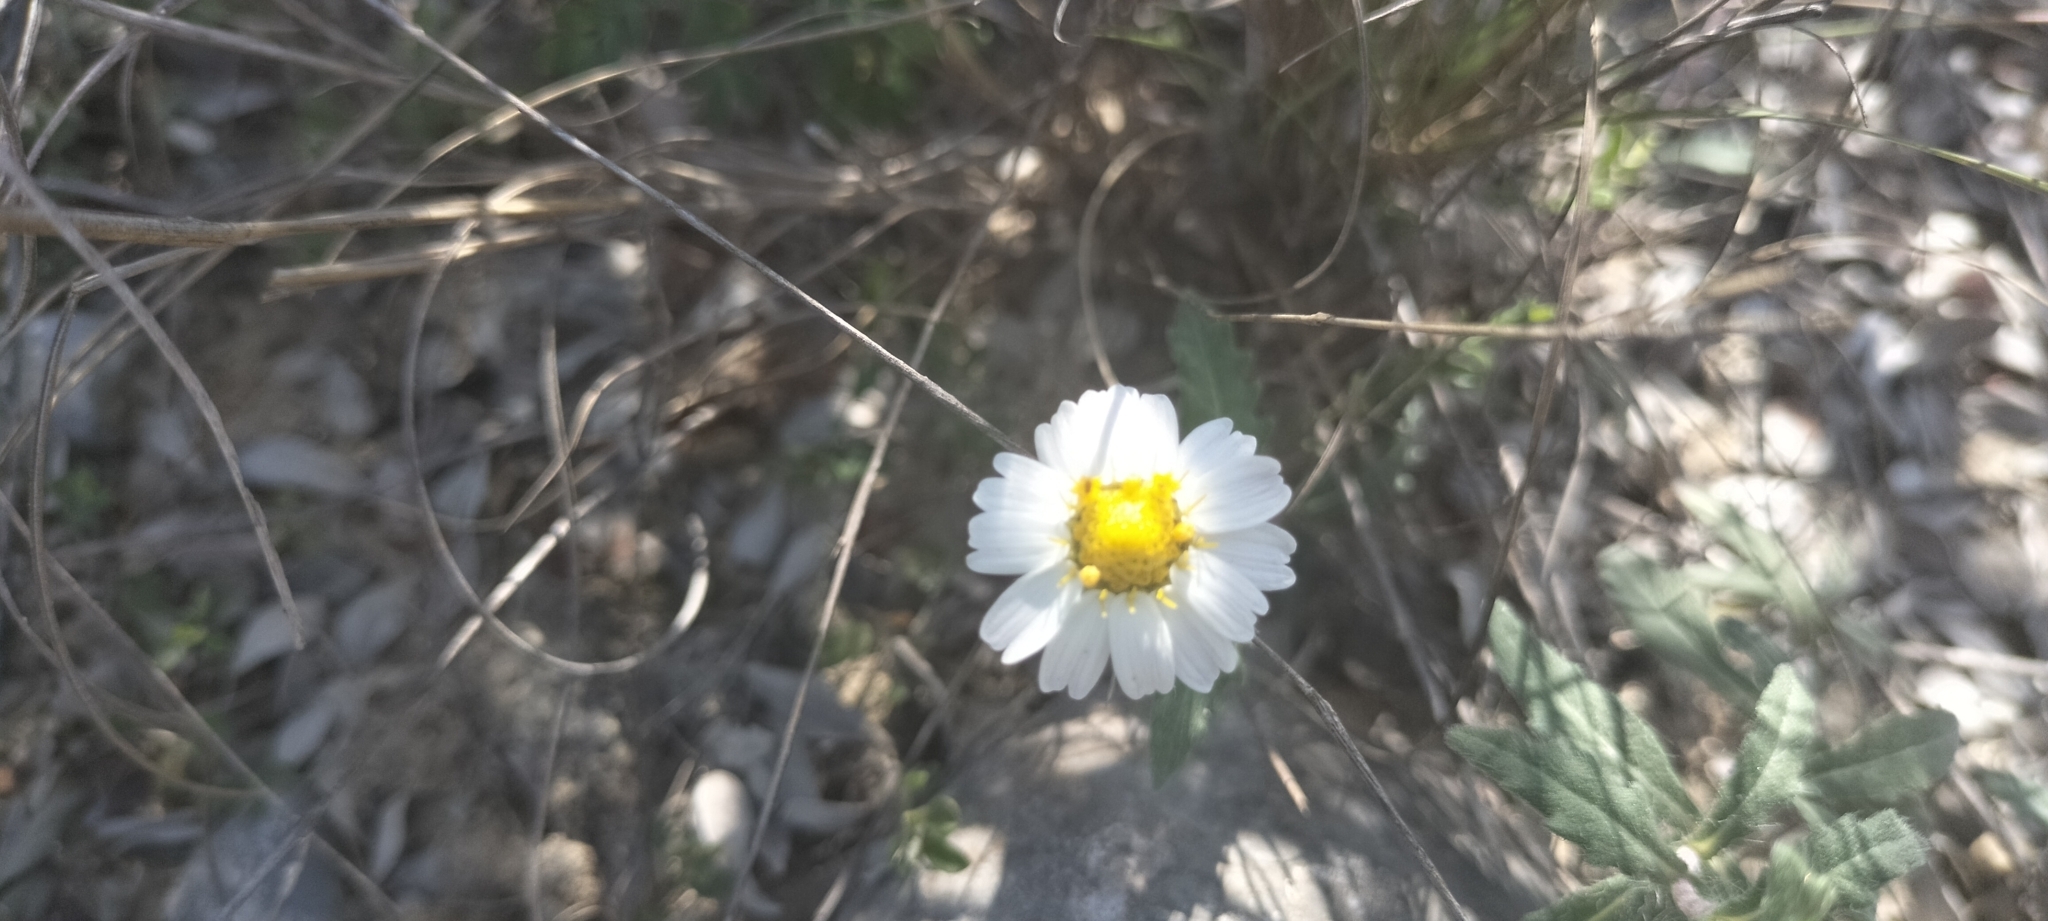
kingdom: Plantae
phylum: Tracheophyta
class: Magnoliopsida
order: Asterales
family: Asteraceae
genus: Melampodium
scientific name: Melampodium cinereum
